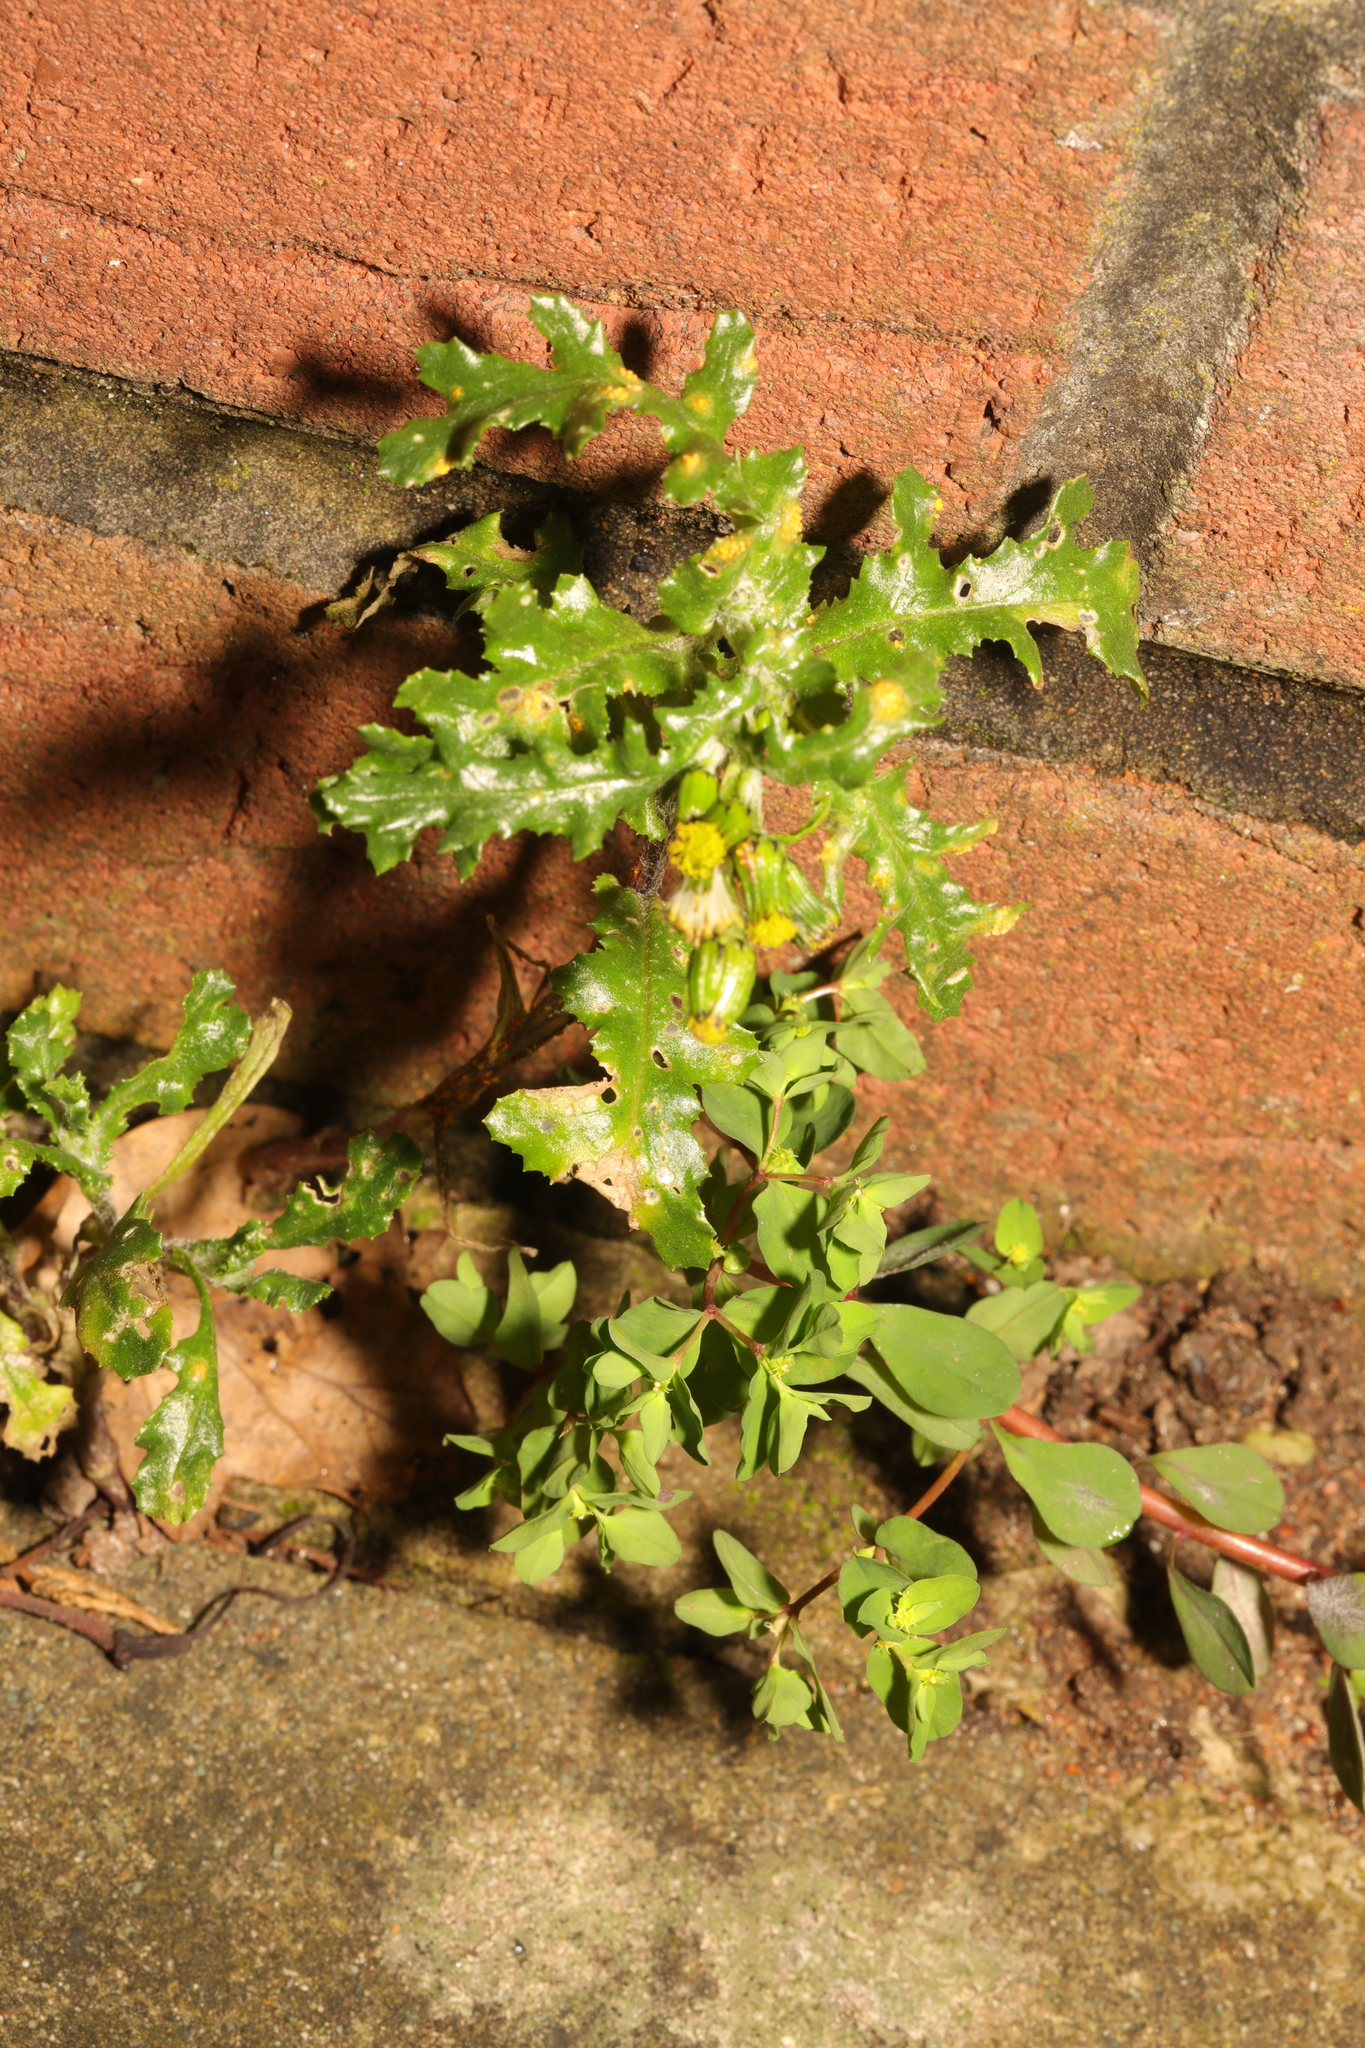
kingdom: Plantae
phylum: Tracheophyta
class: Magnoliopsida
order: Asterales
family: Asteraceae
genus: Senecio
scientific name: Senecio vulgaris
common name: Old-man-in-the-spring
